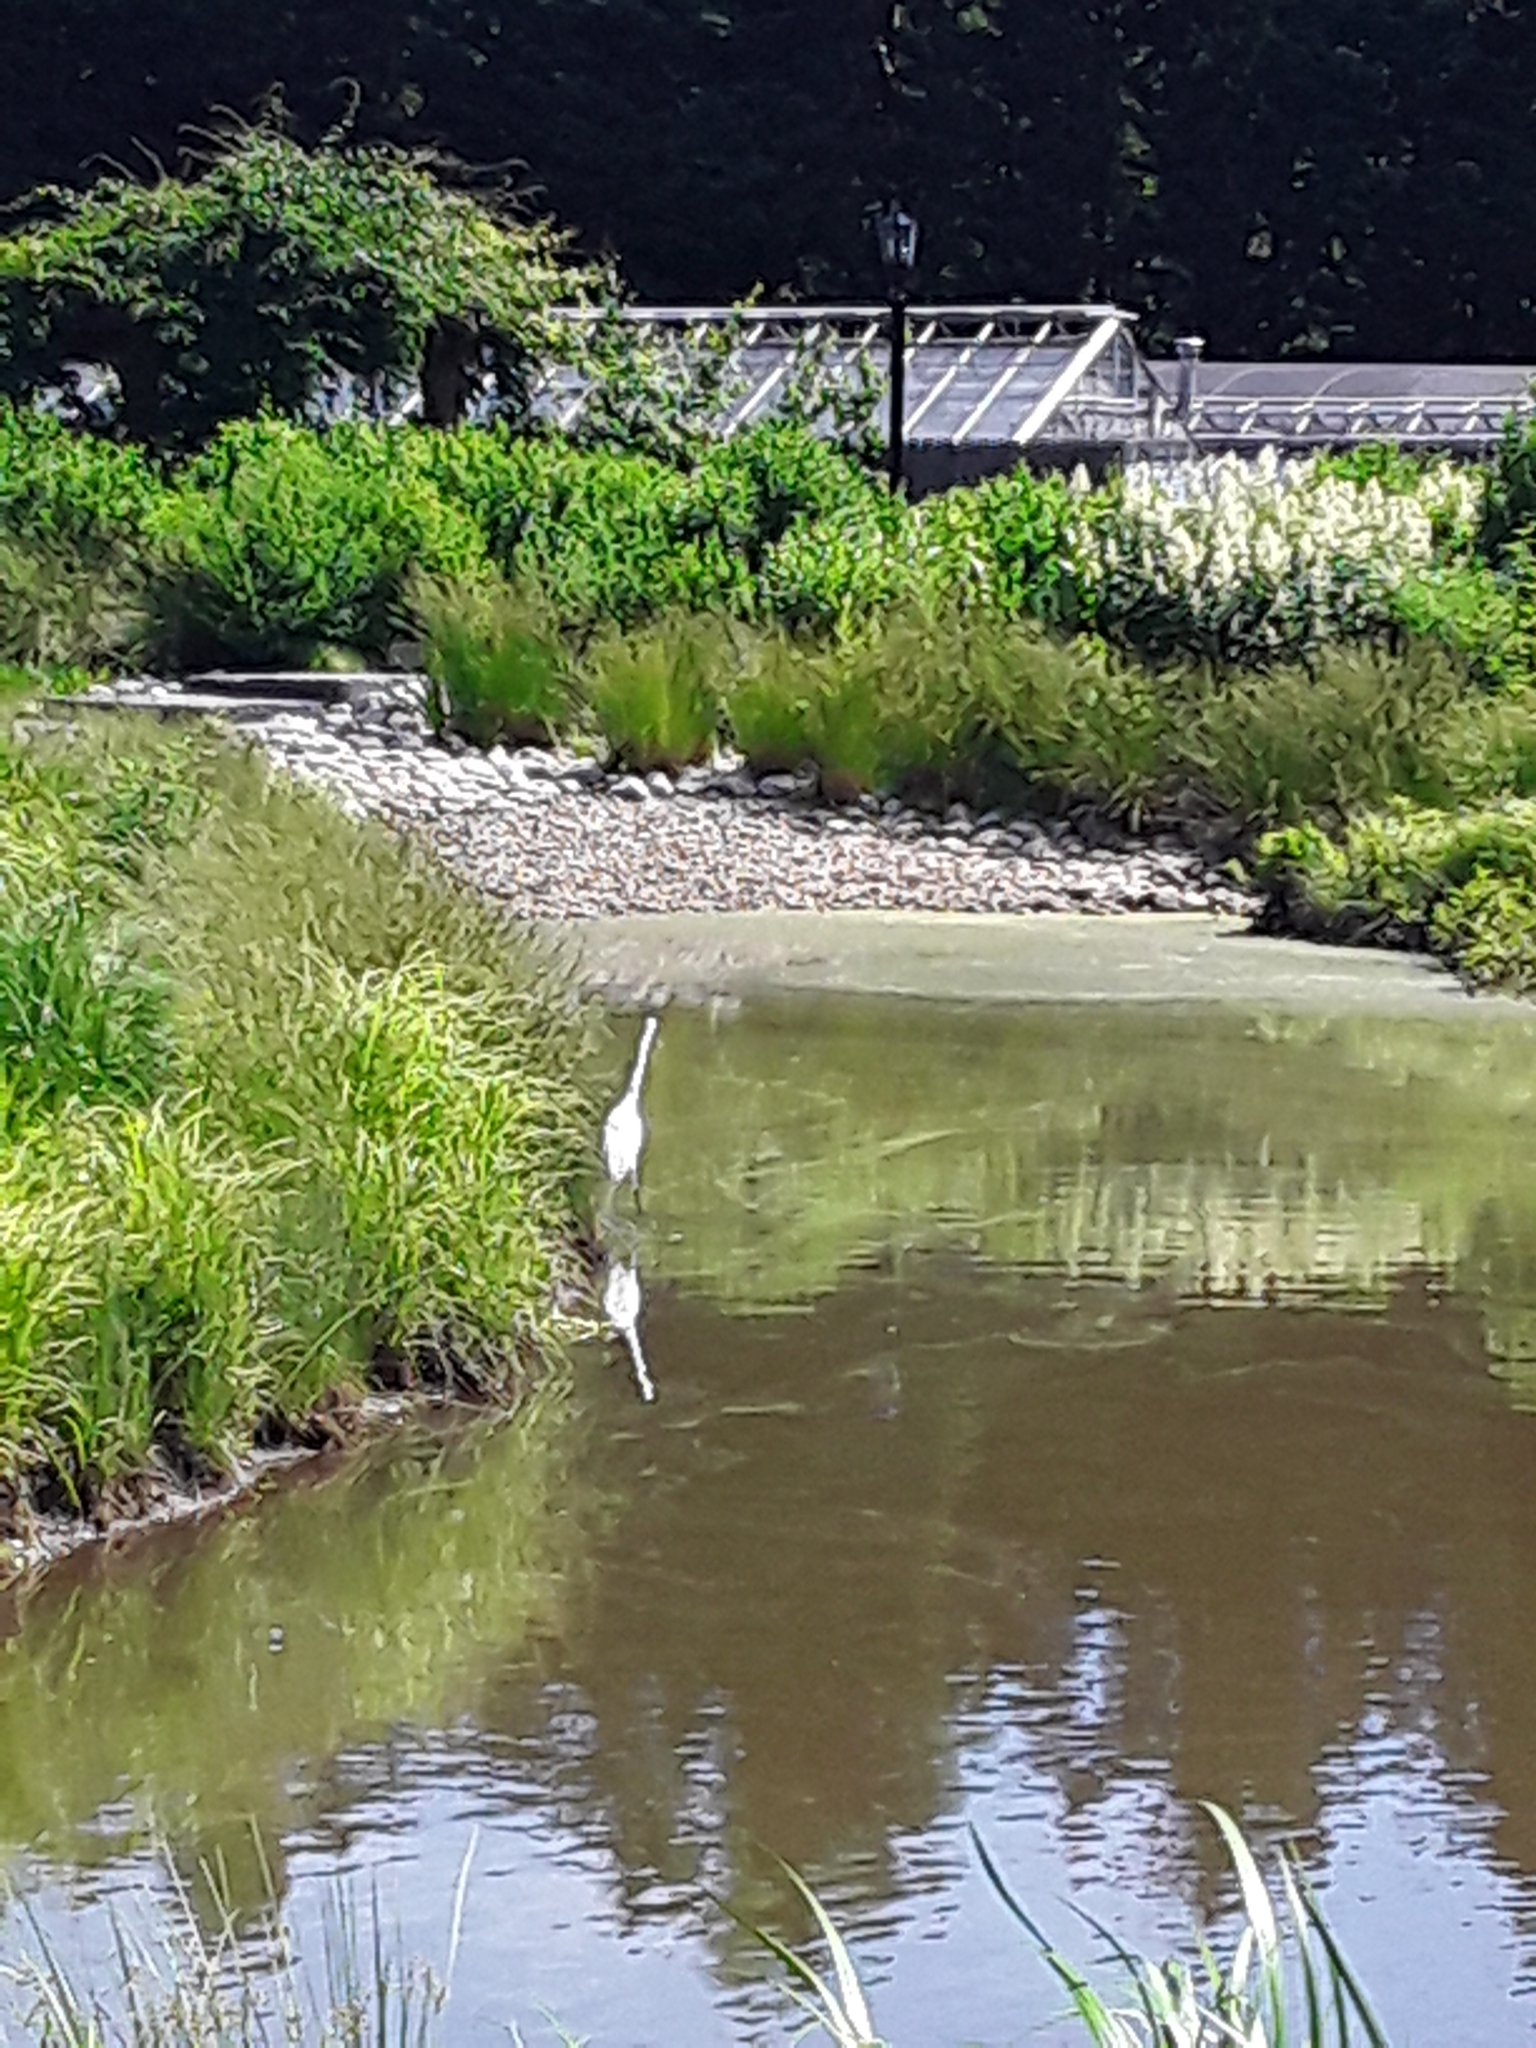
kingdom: Animalia
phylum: Chordata
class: Aves
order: Pelecaniformes
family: Ardeidae
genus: Ardea
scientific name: Ardea alba
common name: Great egret
